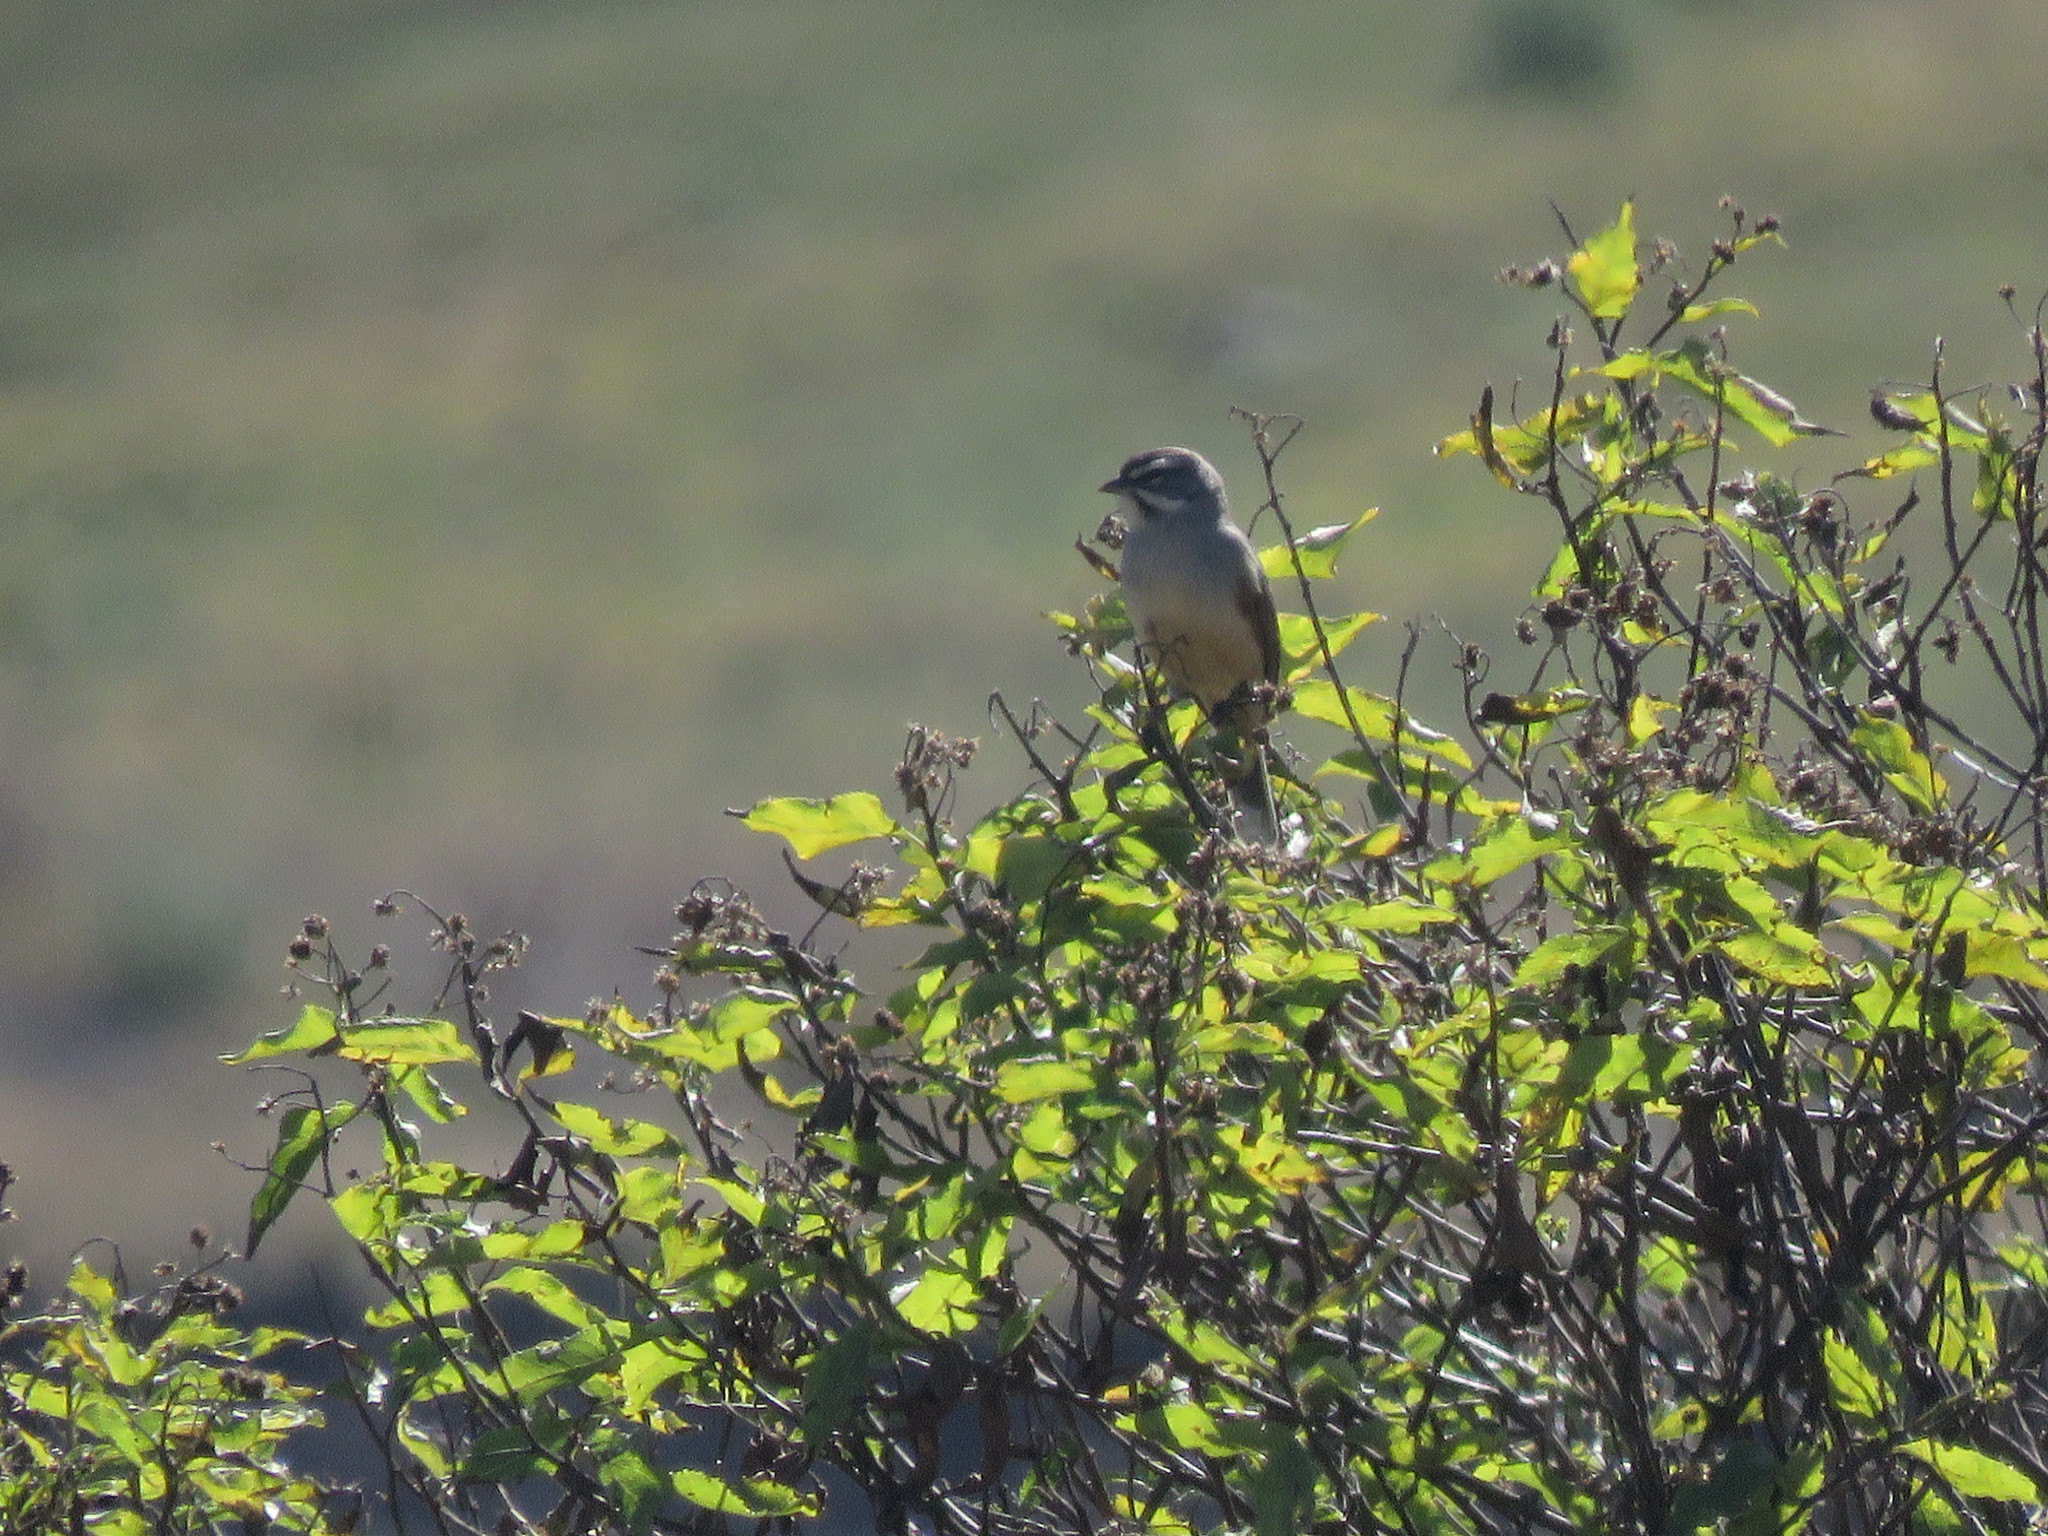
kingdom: Animalia
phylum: Chordata
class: Aves
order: Passeriformes
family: Thraupidae
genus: Poospizopsis
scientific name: Poospizopsis hypocondria
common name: Rufous-sided warbling-finch
